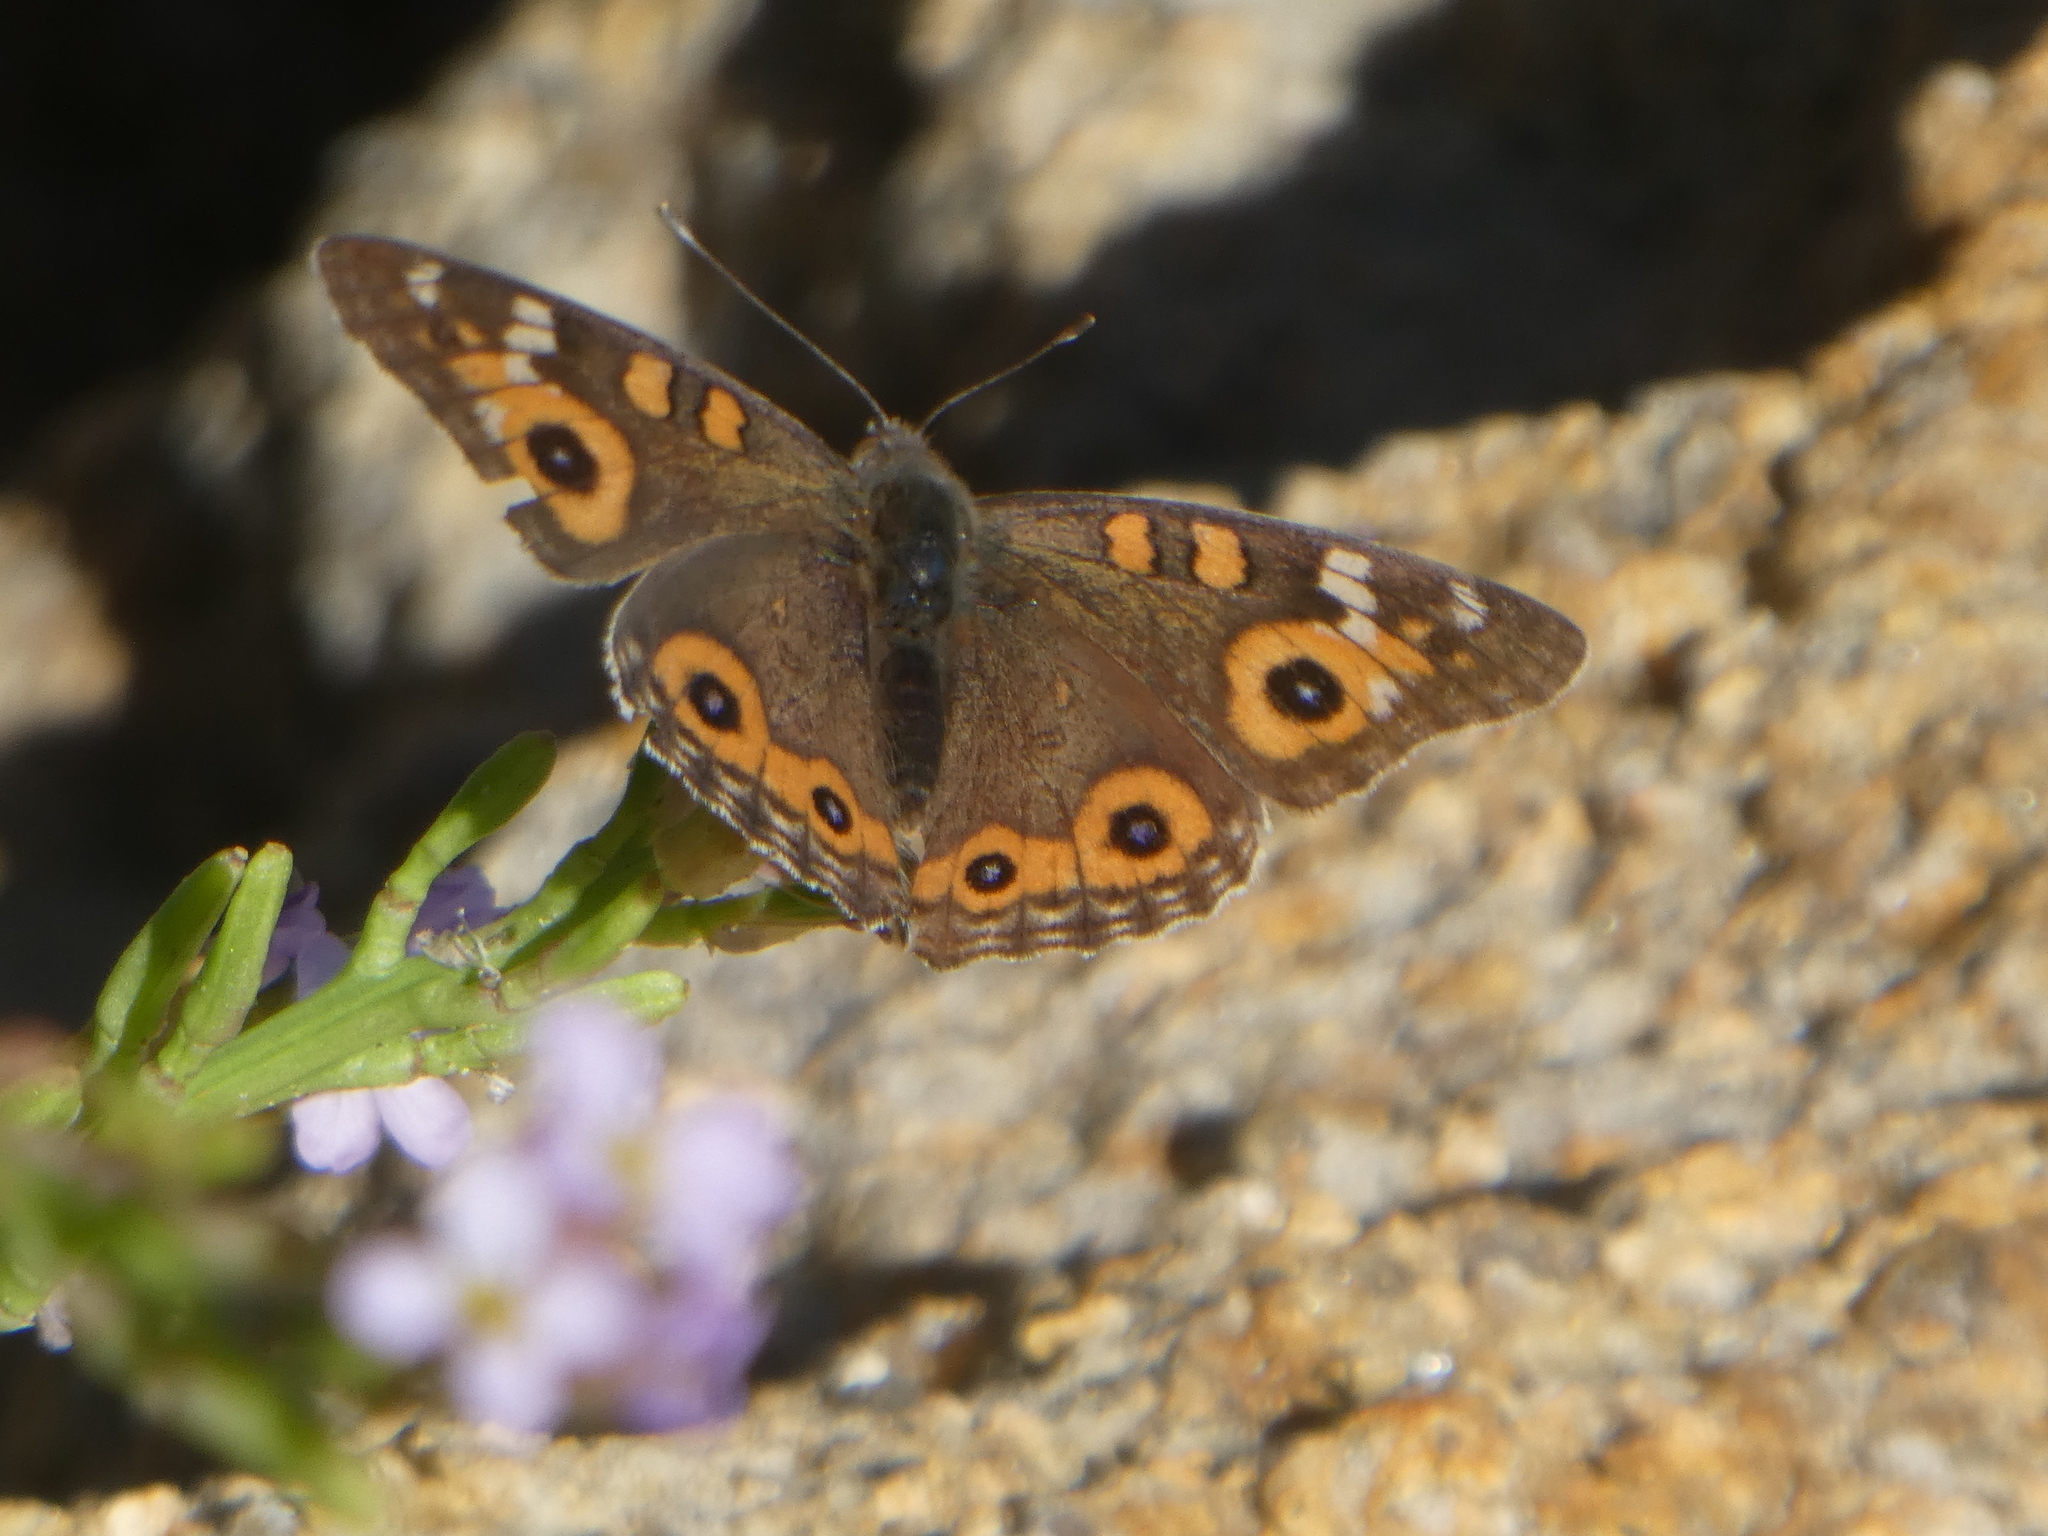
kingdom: Animalia
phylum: Arthropoda
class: Insecta
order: Lepidoptera
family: Nymphalidae
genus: Junonia
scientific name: Junonia villida
